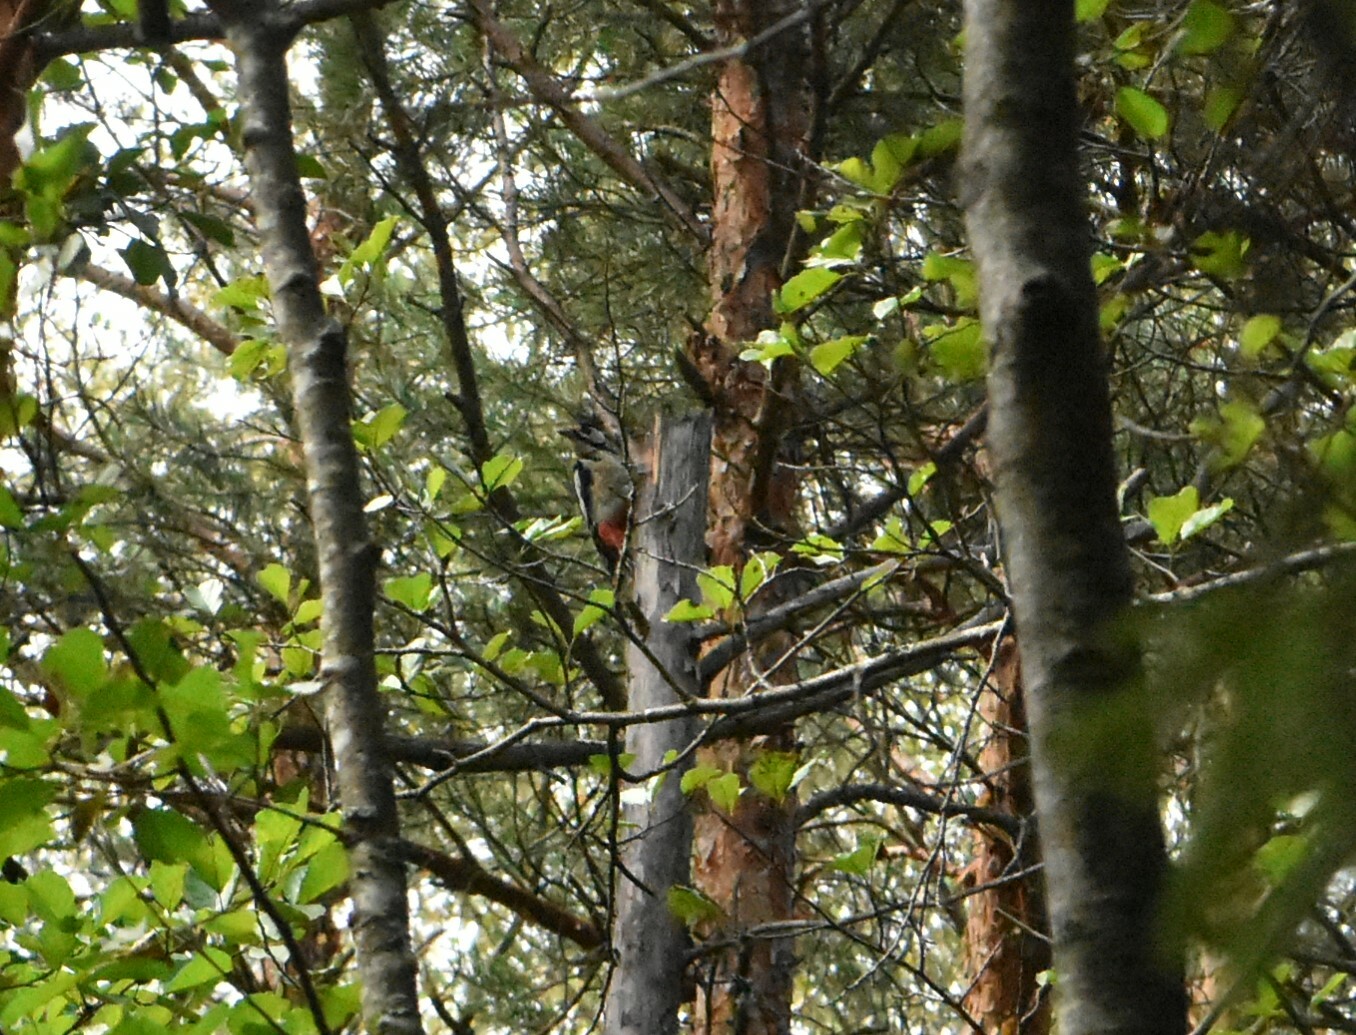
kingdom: Animalia
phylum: Chordata
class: Aves
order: Piciformes
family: Picidae
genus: Dendrocopos
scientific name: Dendrocopos major
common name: Great spotted woodpecker
